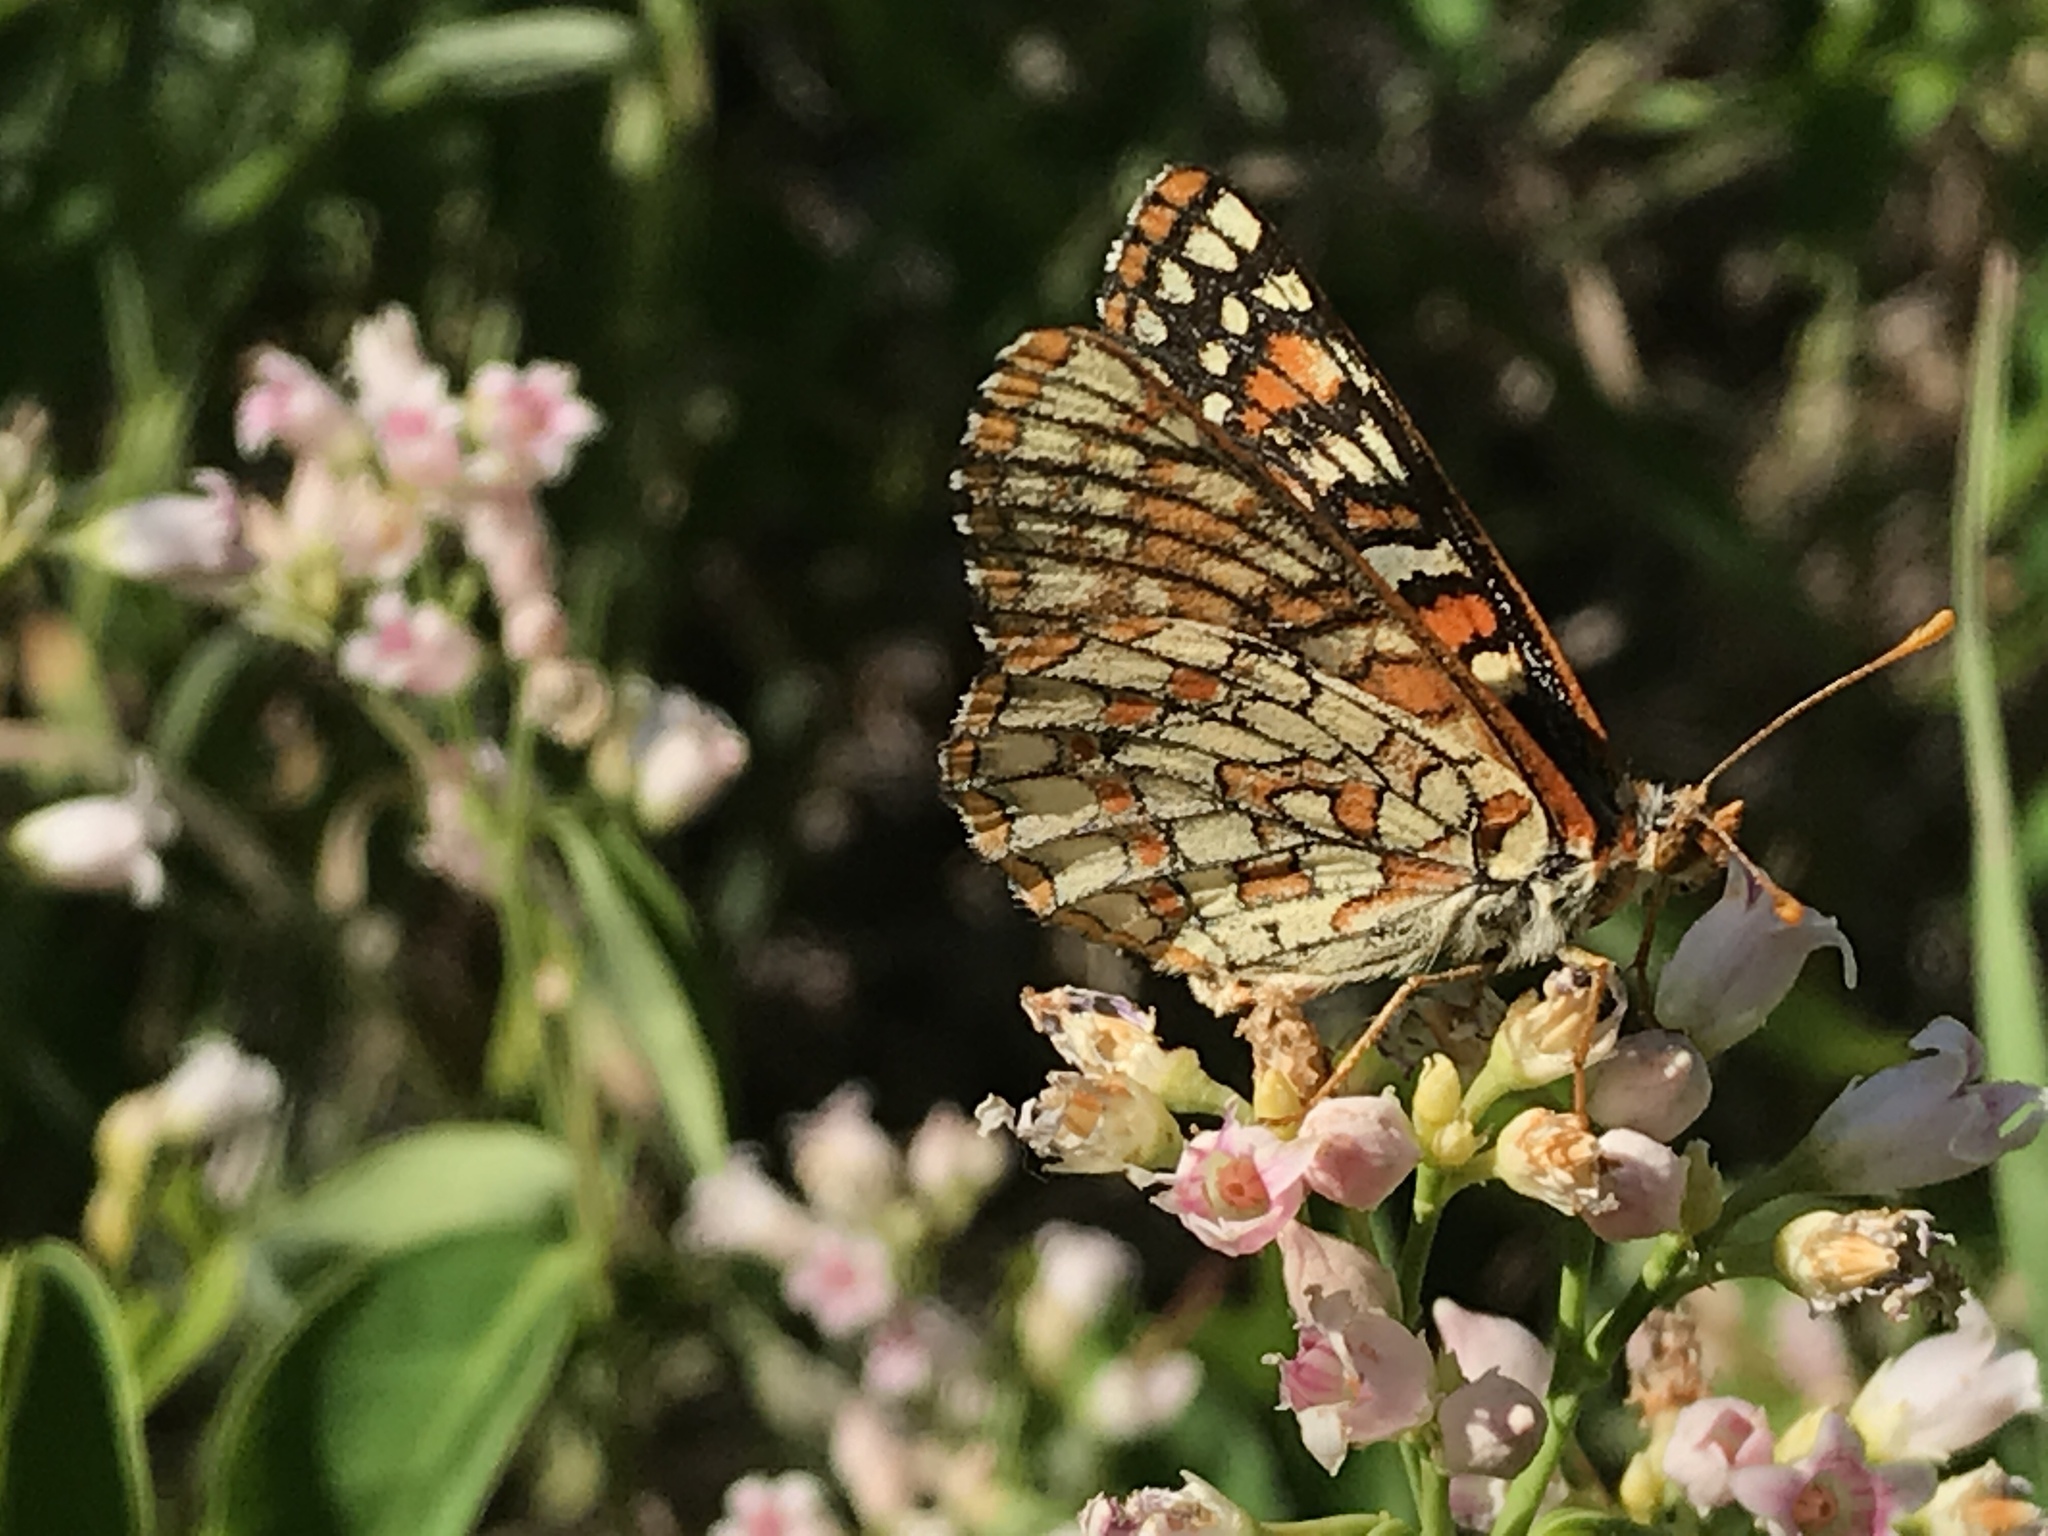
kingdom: Animalia
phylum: Arthropoda
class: Insecta
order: Lepidoptera
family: Nymphalidae
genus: Occidryas
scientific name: Occidryas anicia
